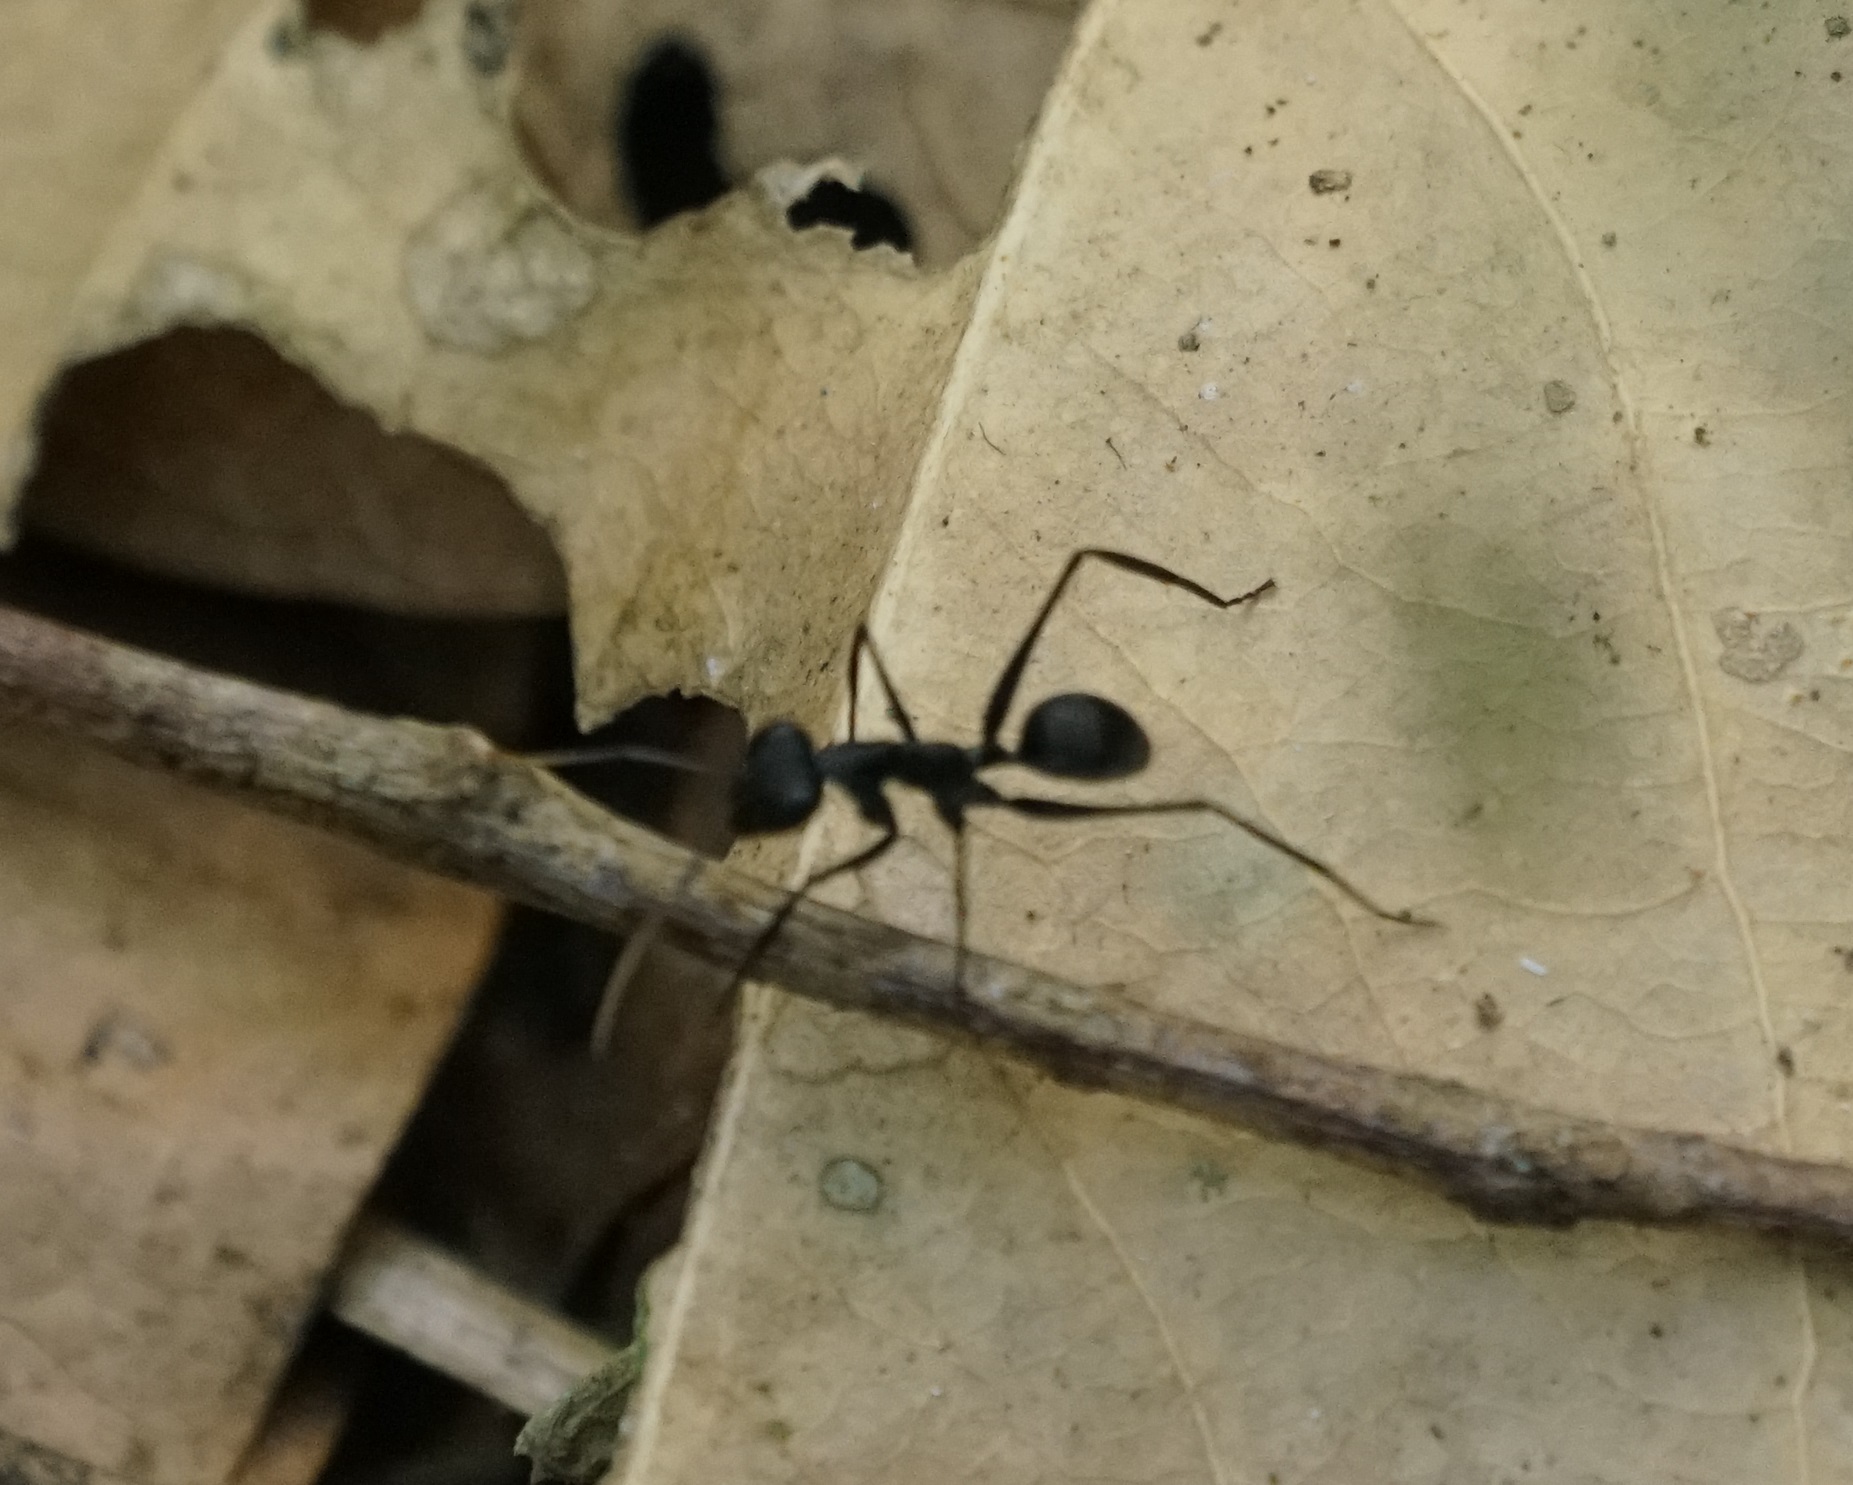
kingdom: Animalia
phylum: Arthropoda
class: Insecta
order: Hymenoptera
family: Formicidae
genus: Gigantiops
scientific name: Gigantiops destructor
